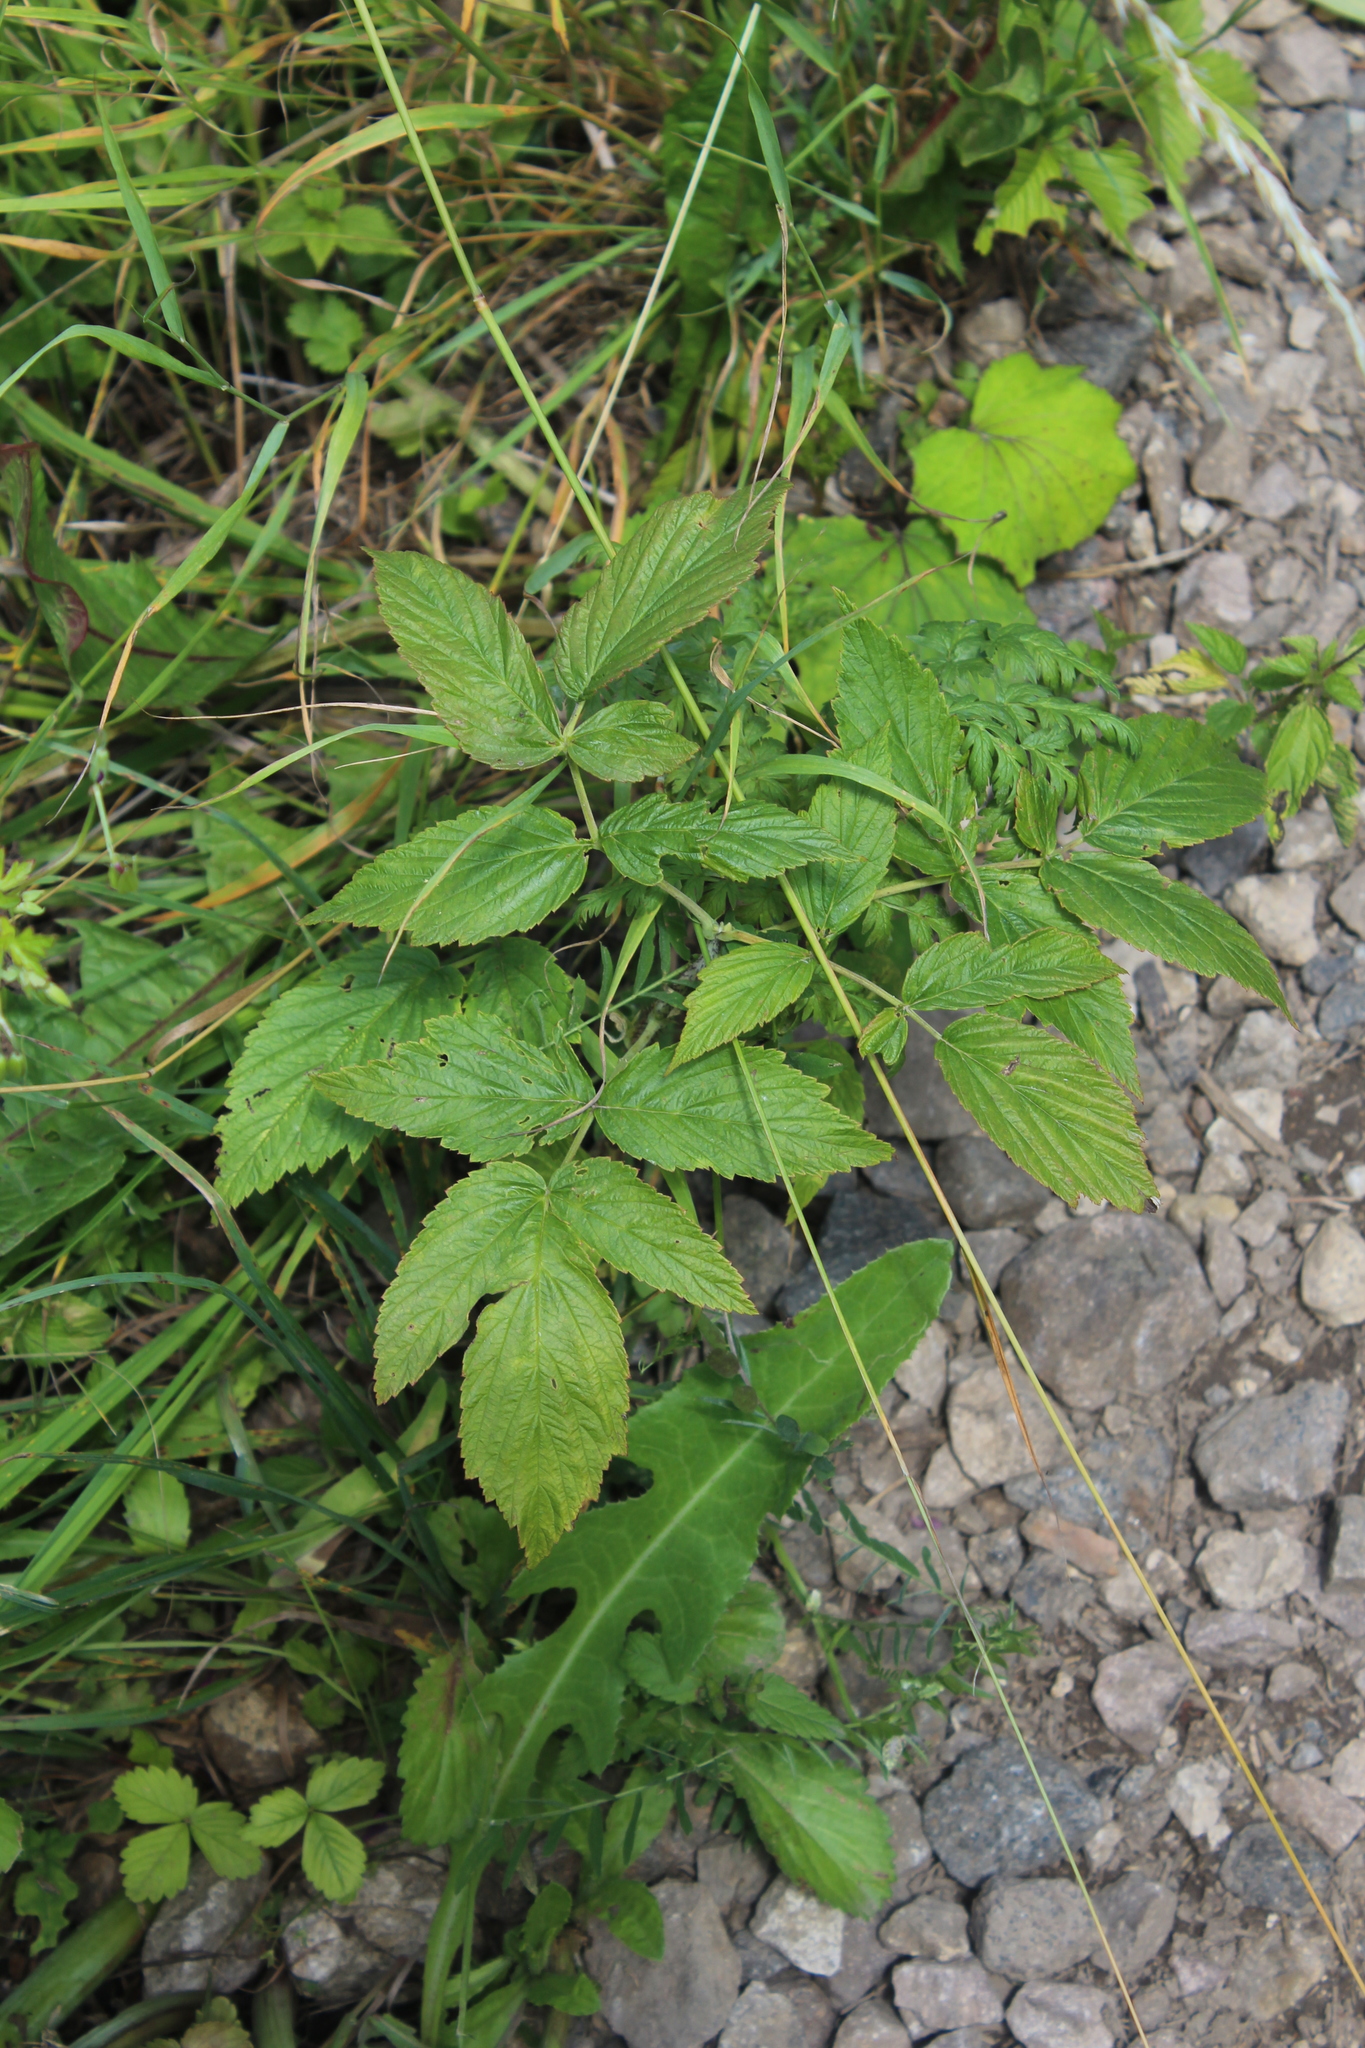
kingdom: Plantae
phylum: Tracheophyta
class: Magnoliopsida
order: Rosales
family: Rosaceae
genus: Rubus
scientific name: Rubus idaeus
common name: Raspberry
